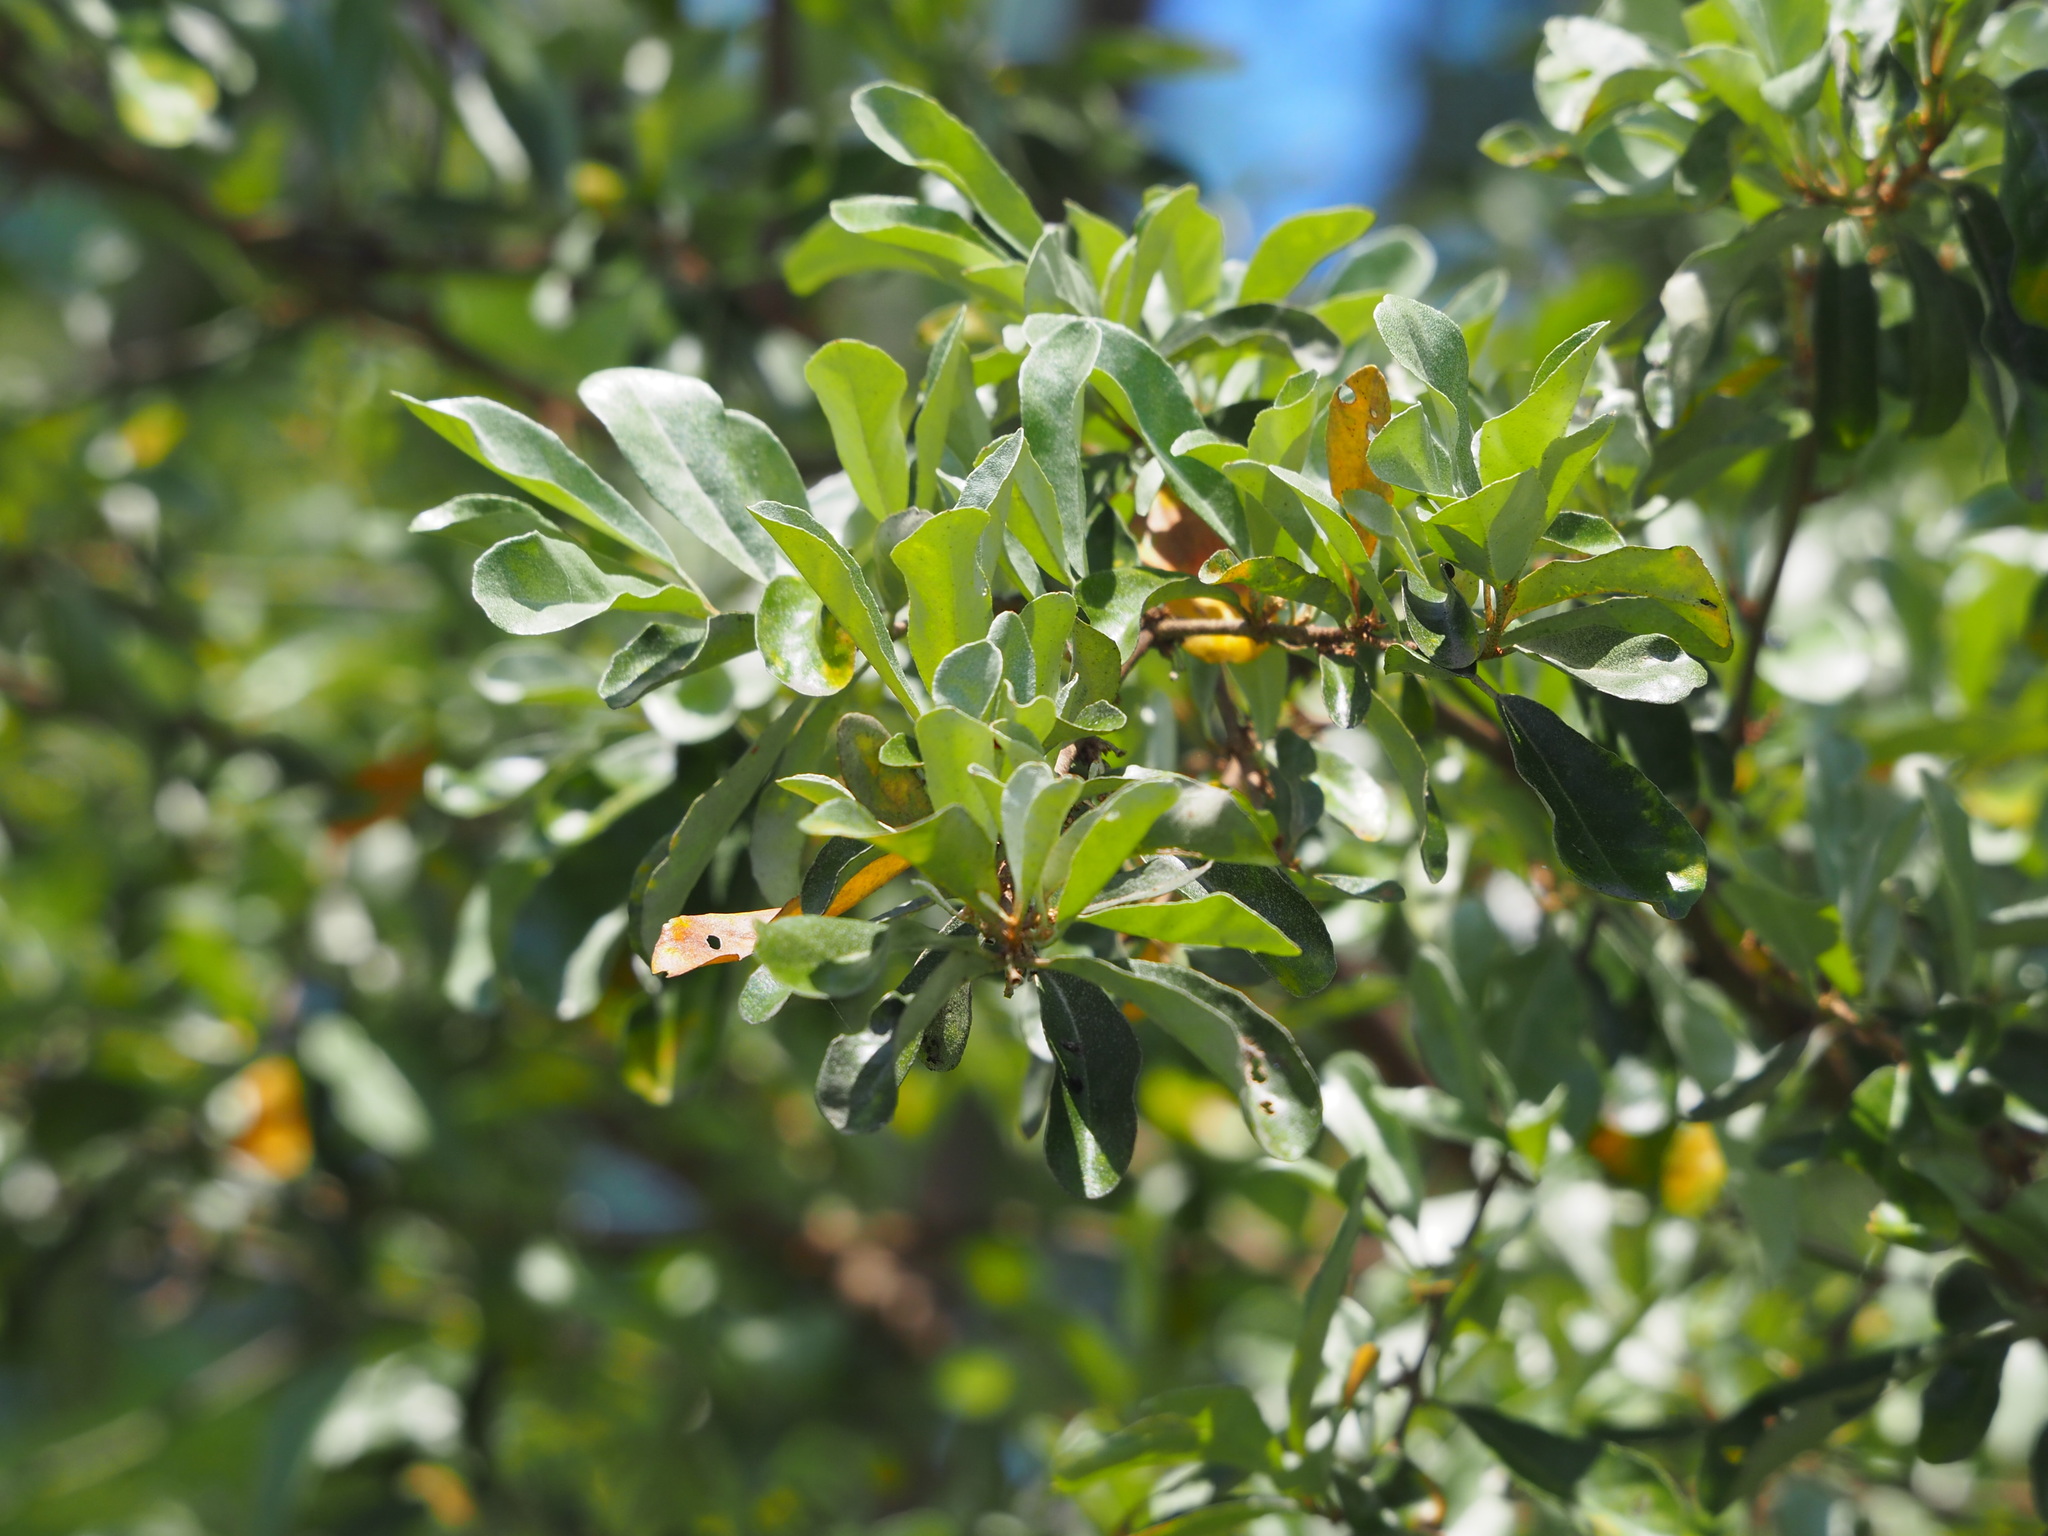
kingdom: Plantae
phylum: Tracheophyta
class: Magnoliopsida
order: Rosales
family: Elaeagnaceae
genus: Elaeagnus
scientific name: Elaeagnus oldhamii
